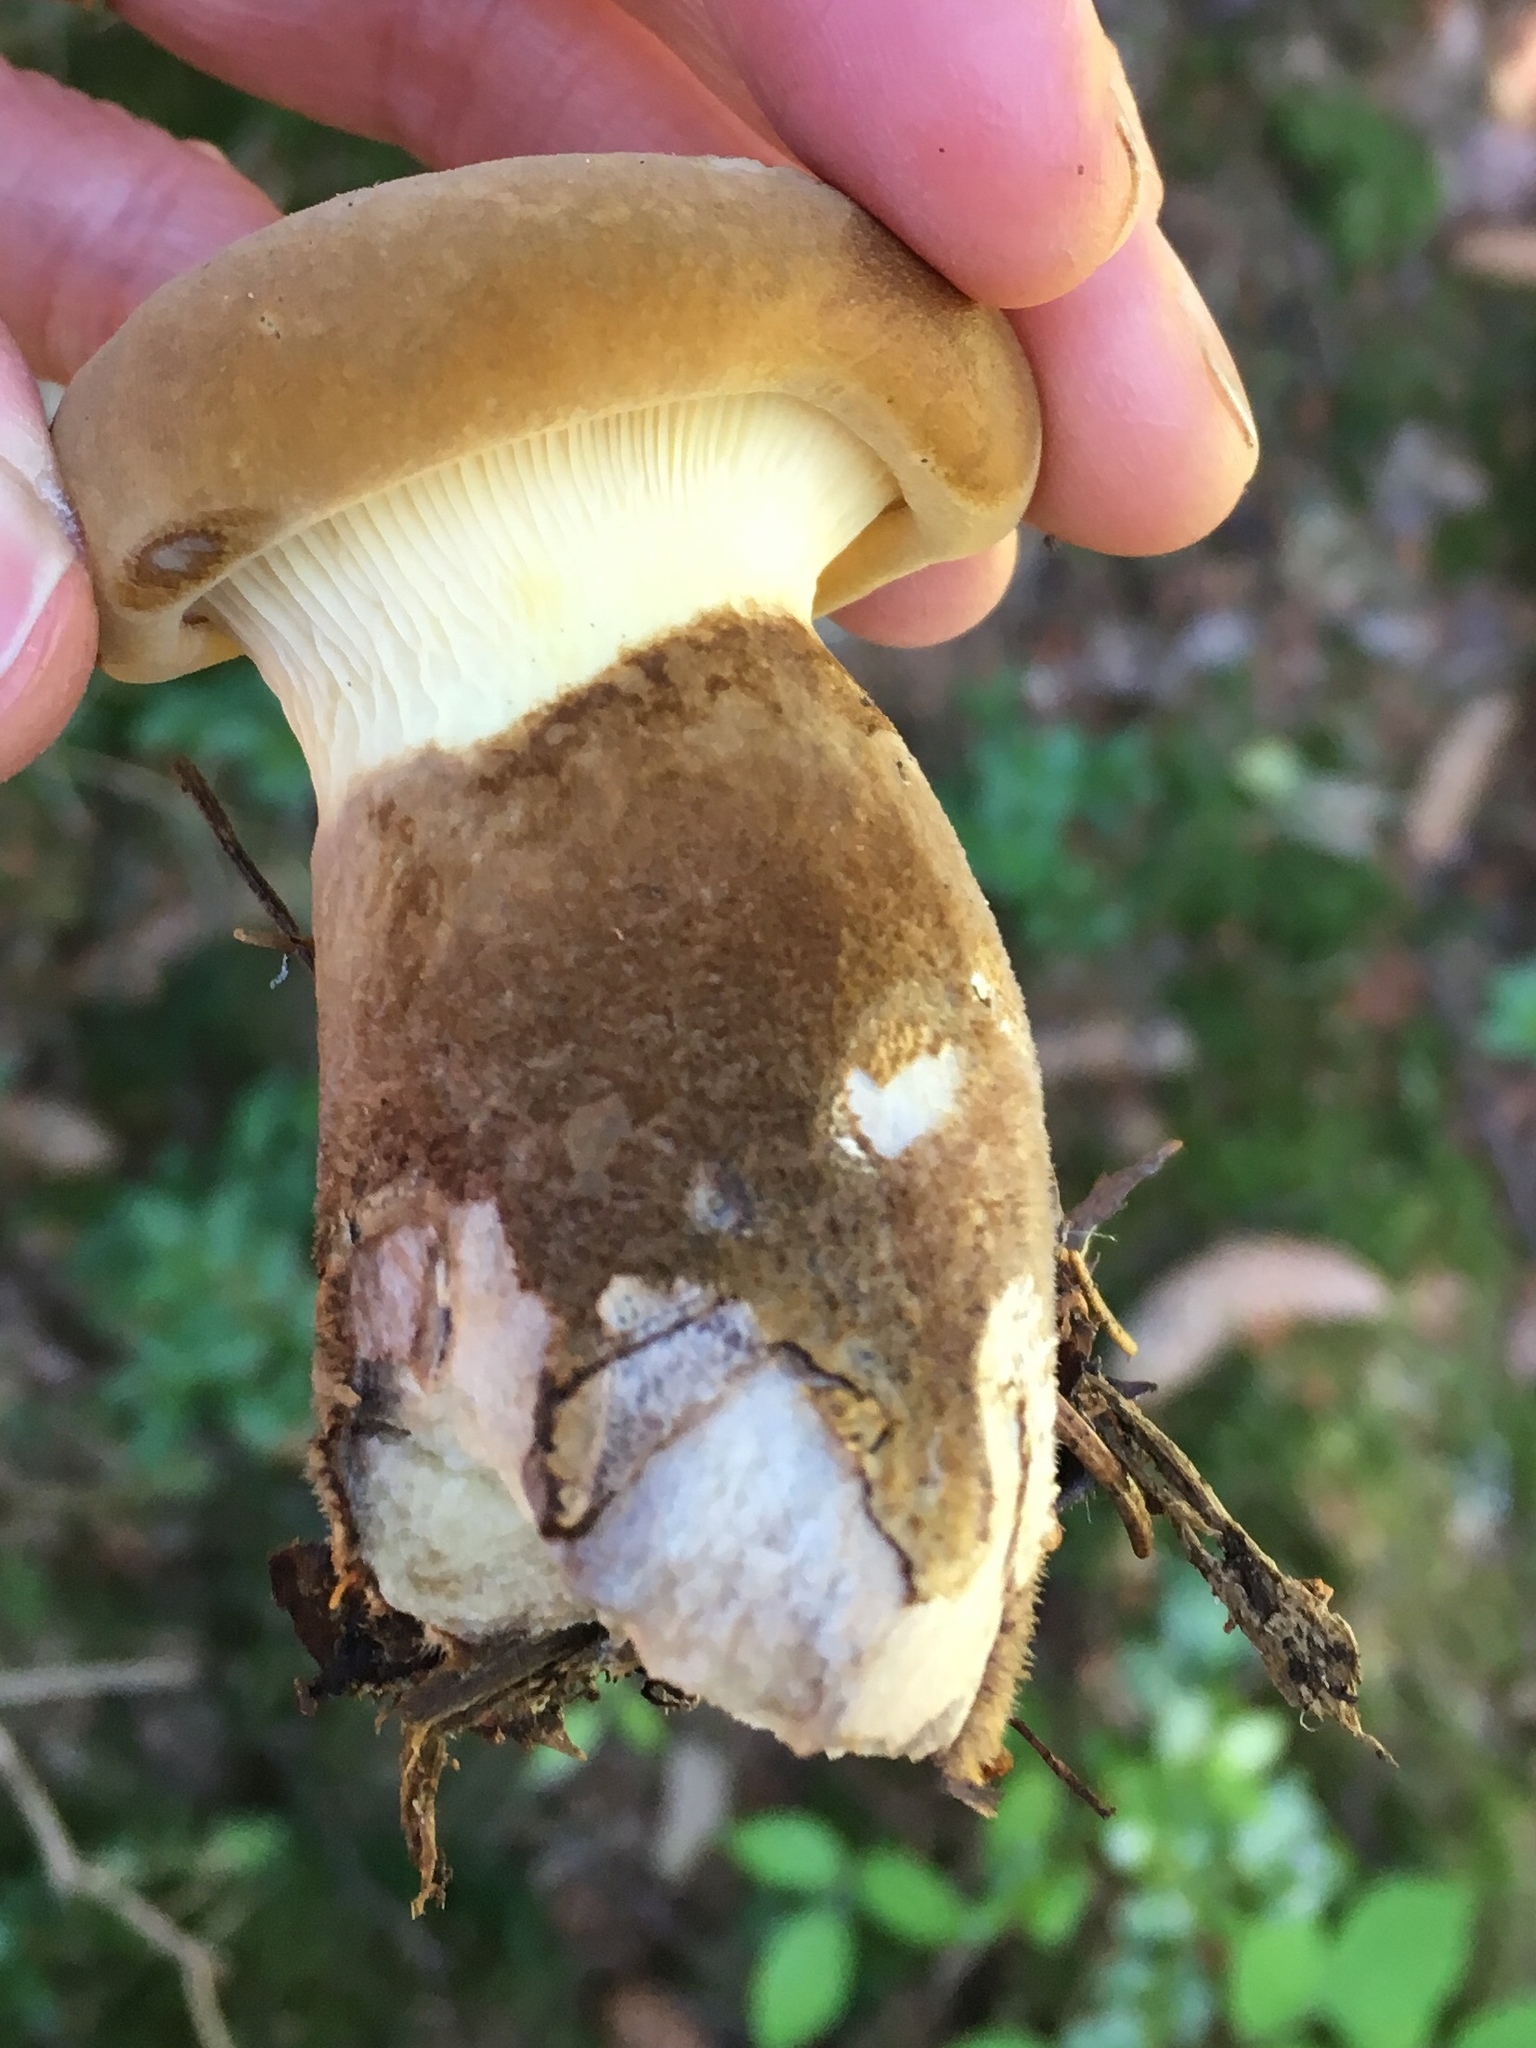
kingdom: Fungi
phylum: Basidiomycota
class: Agaricomycetes
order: Boletales
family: Tapinellaceae
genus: Tapinella
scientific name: Tapinella atrotomentosa
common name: Velvet rollrim
